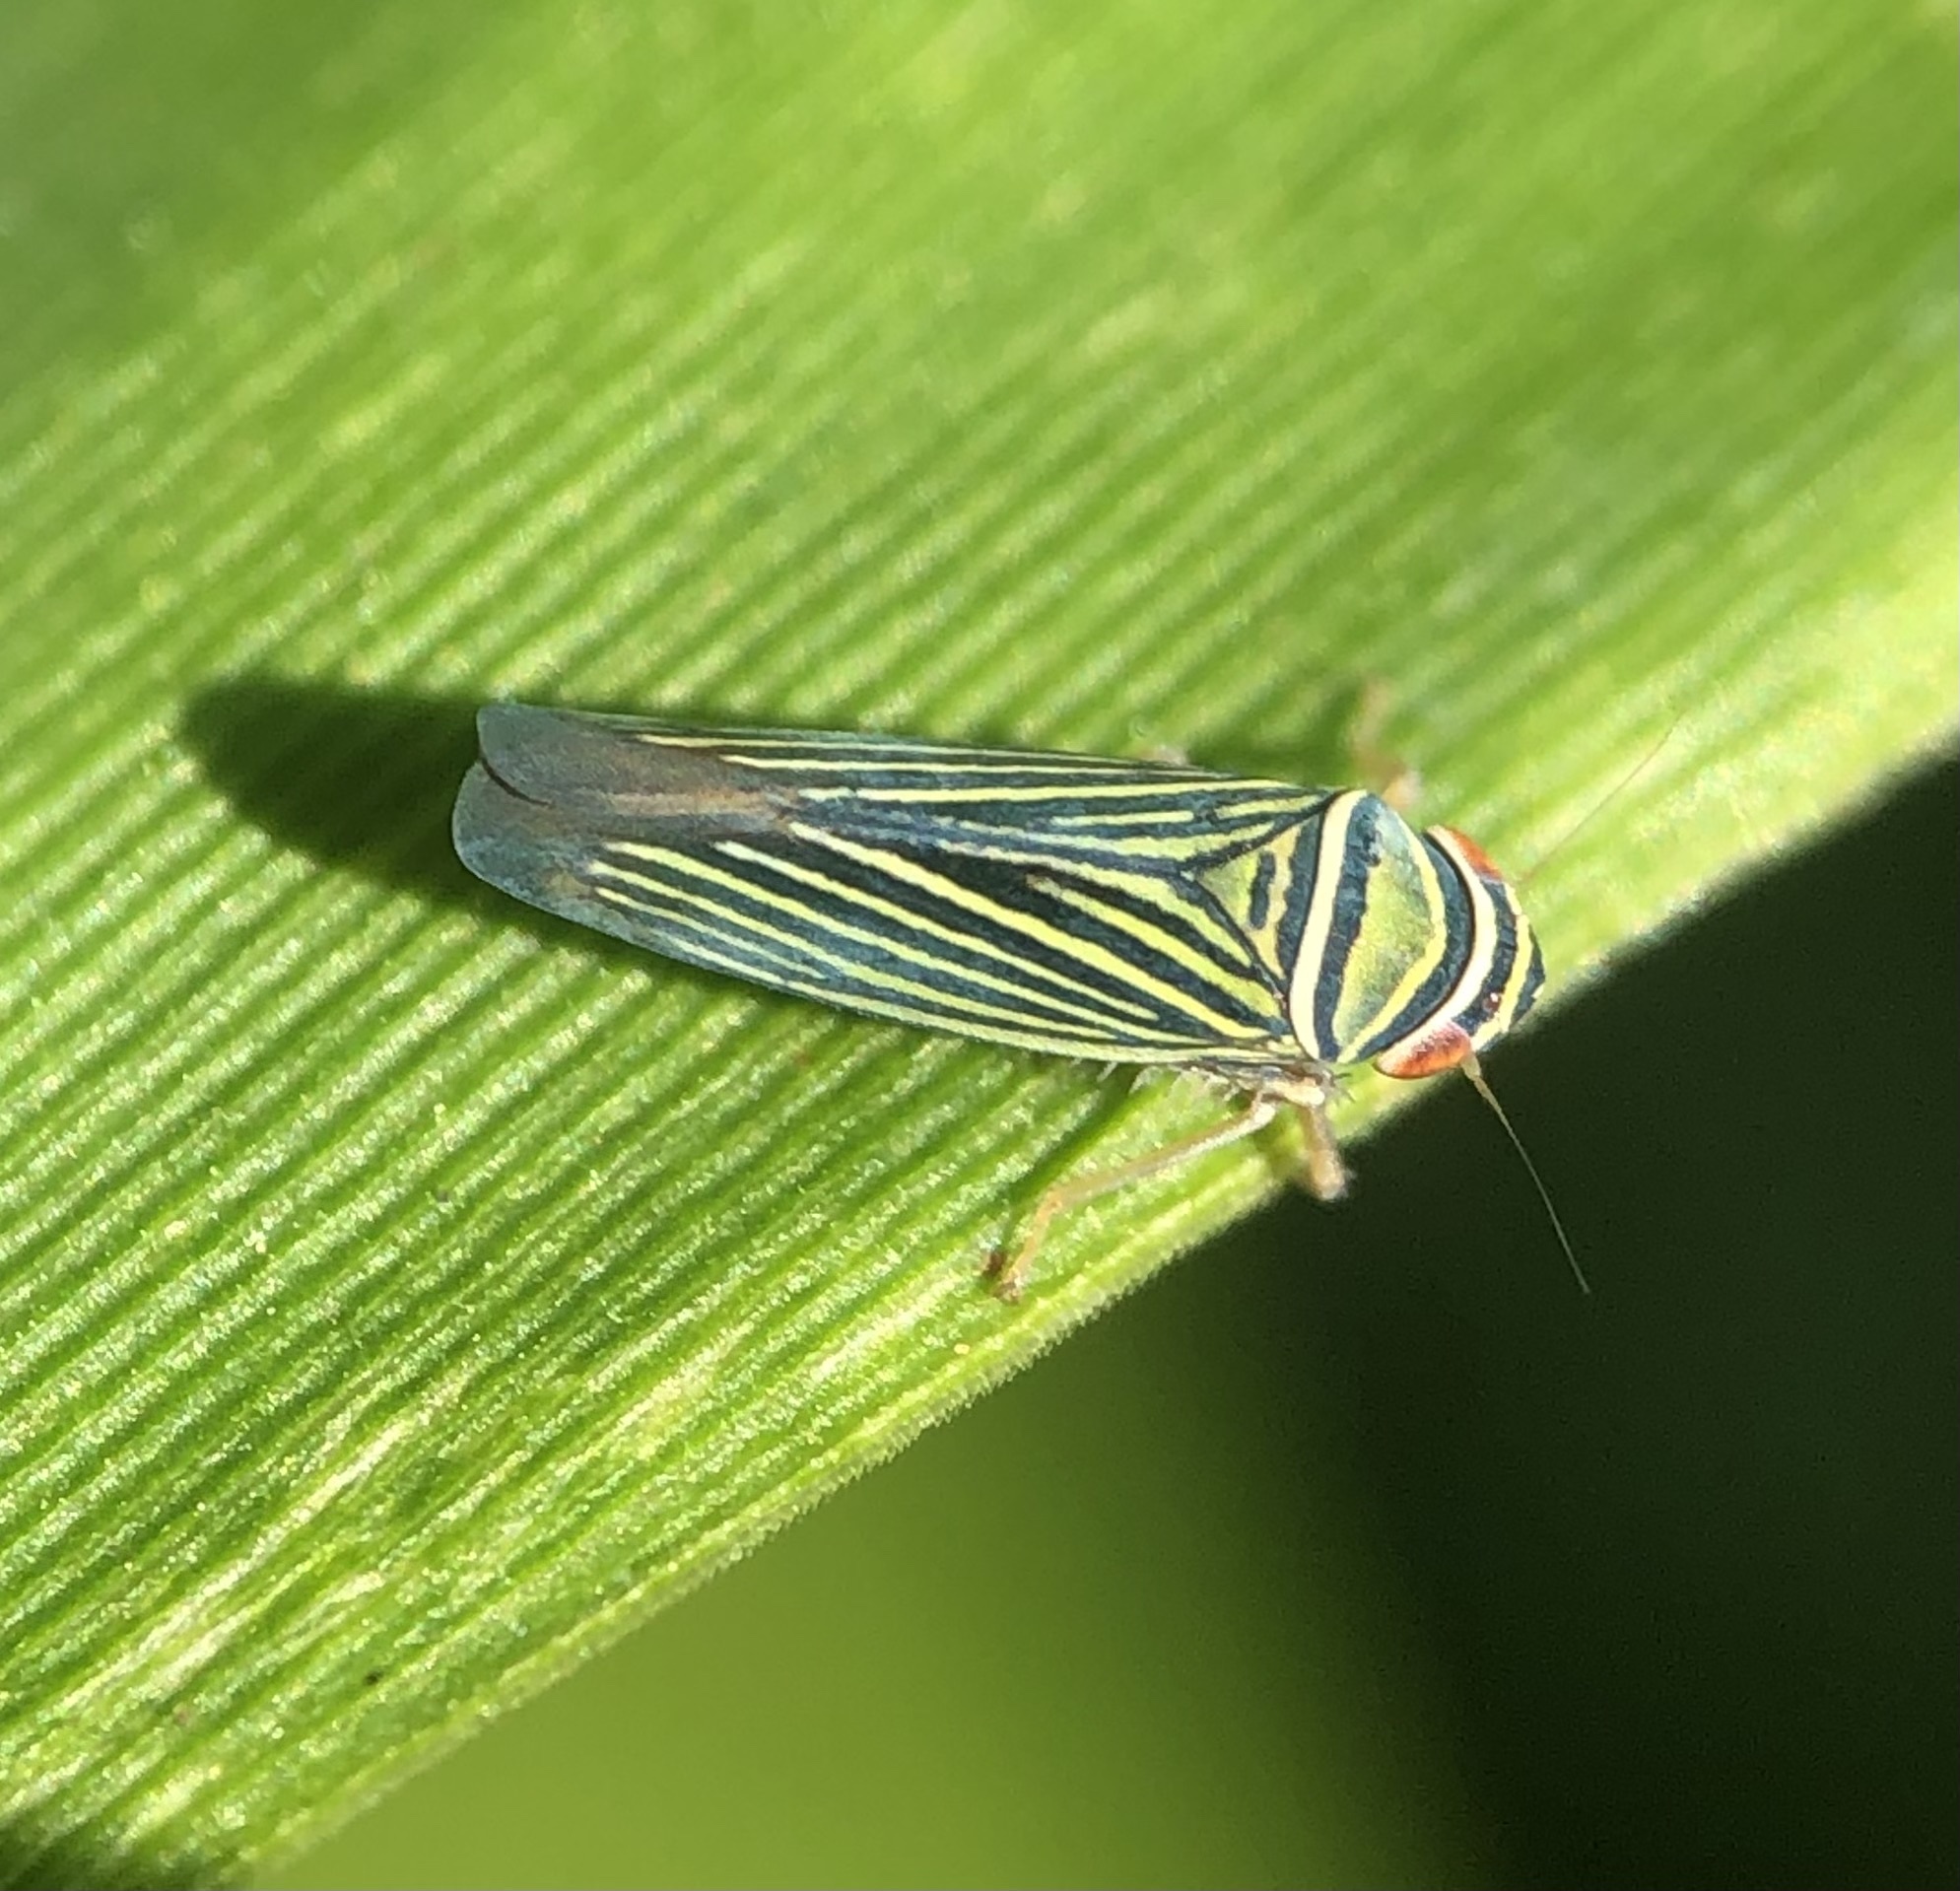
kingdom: Animalia
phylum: Arthropoda
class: Insecta
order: Hemiptera
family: Cicadellidae
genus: Tylozygus
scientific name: Tylozygus bifidus
